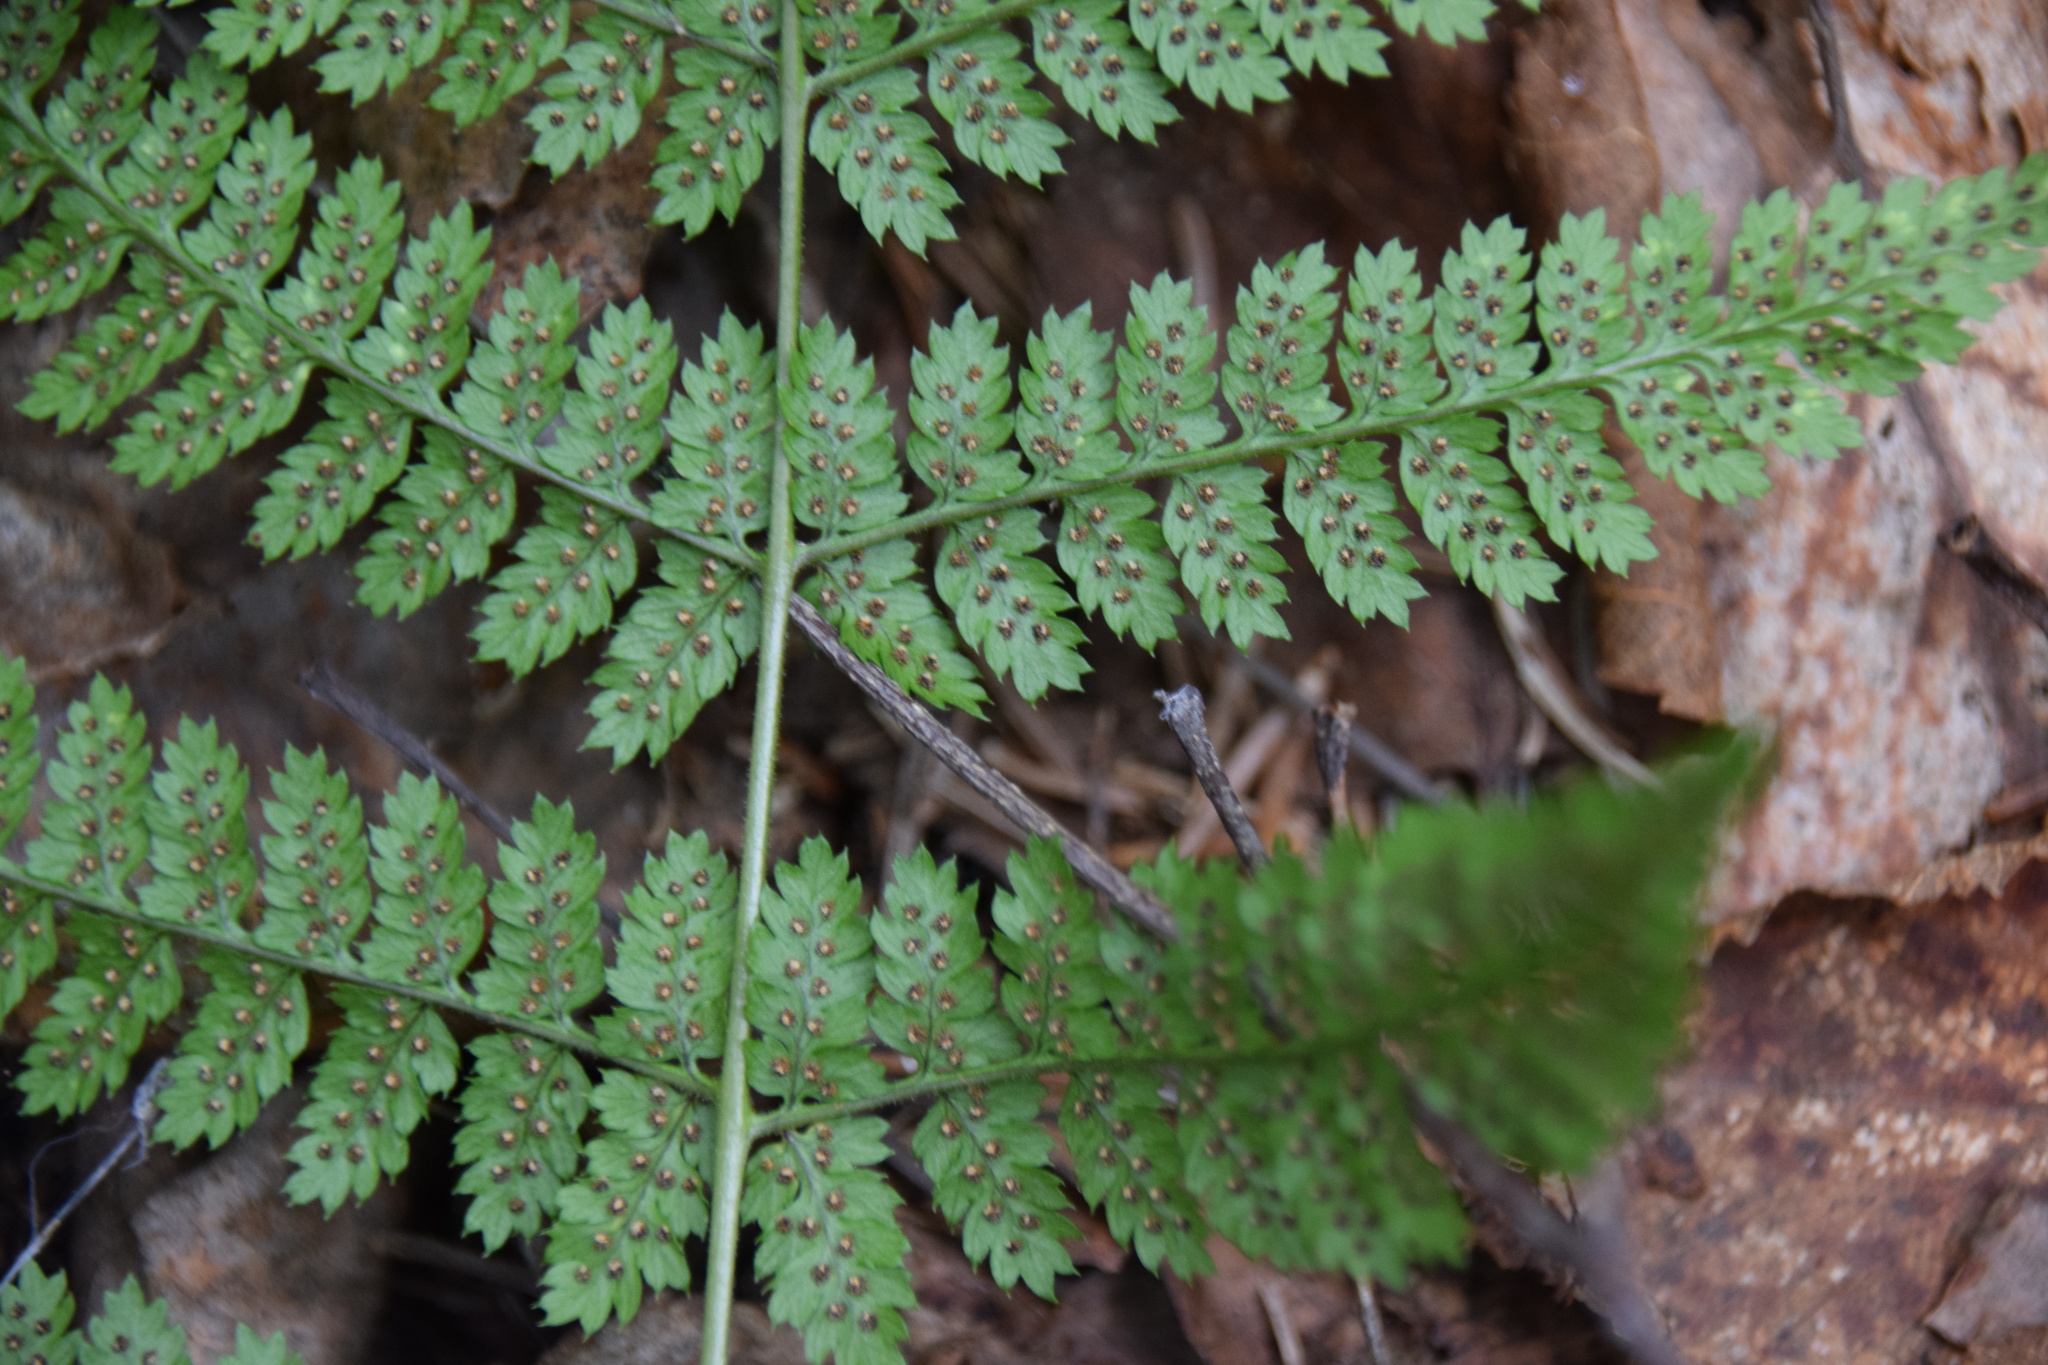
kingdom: Plantae
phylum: Tracheophyta
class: Polypodiopsida
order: Polypodiales
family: Dryopteridaceae
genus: Dryopteris
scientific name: Dryopteris intermedia
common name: Evergreen wood fern
